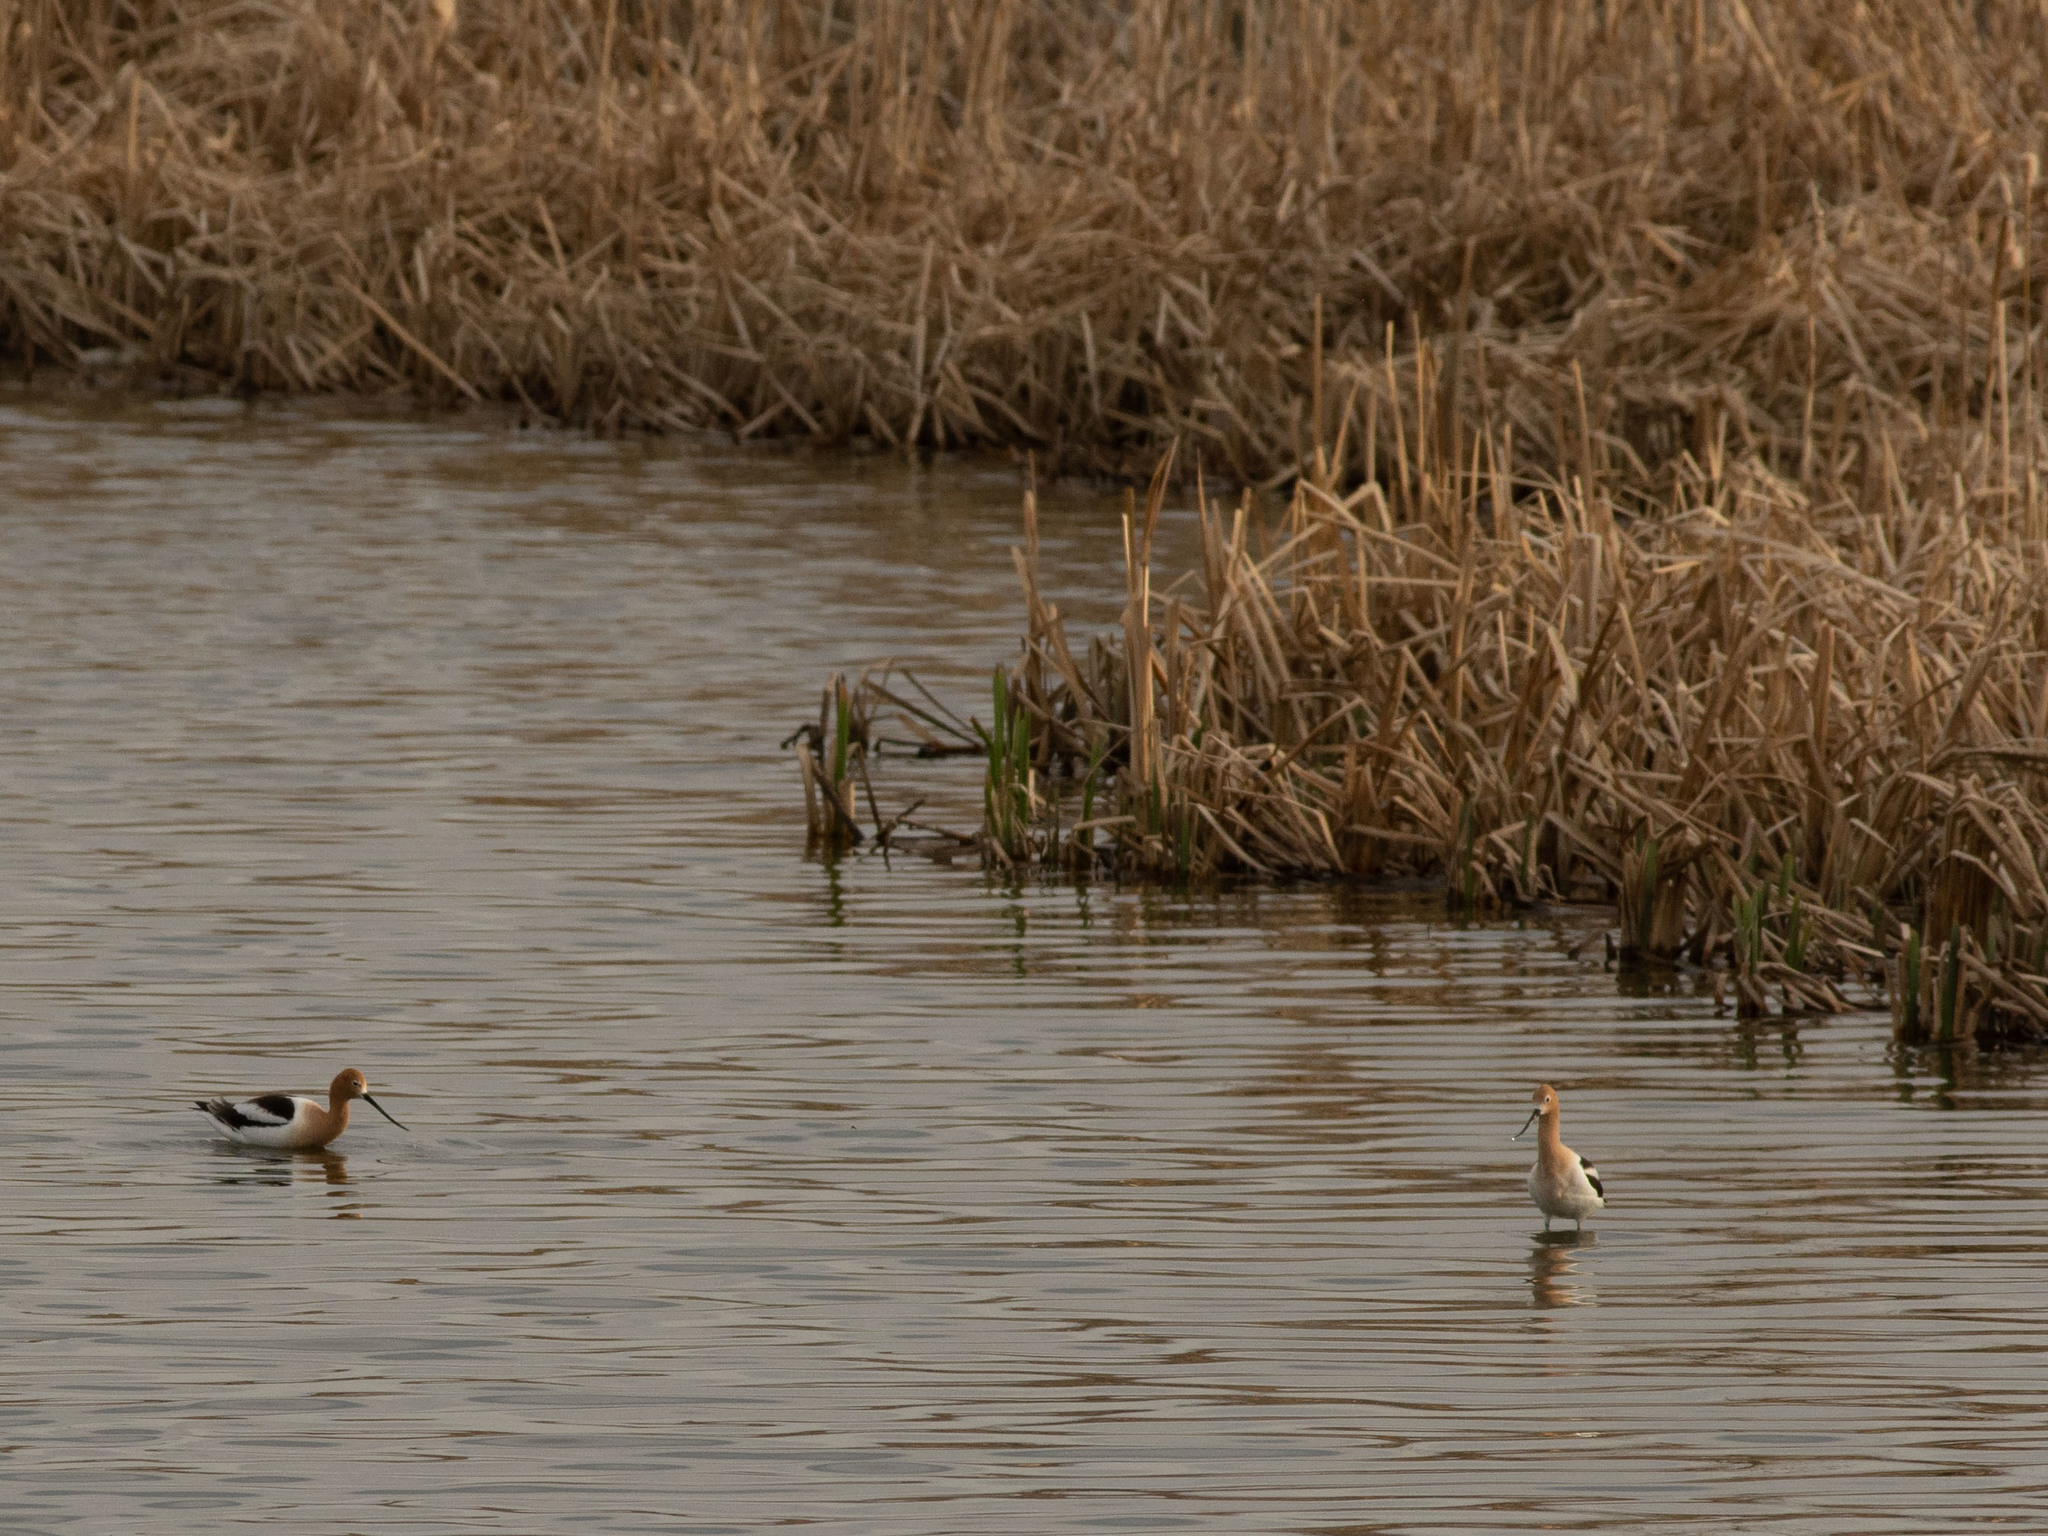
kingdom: Animalia
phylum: Chordata
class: Aves
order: Charadriiformes
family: Recurvirostridae
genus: Recurvirostra
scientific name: Recurvirostra americana
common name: American avocet
